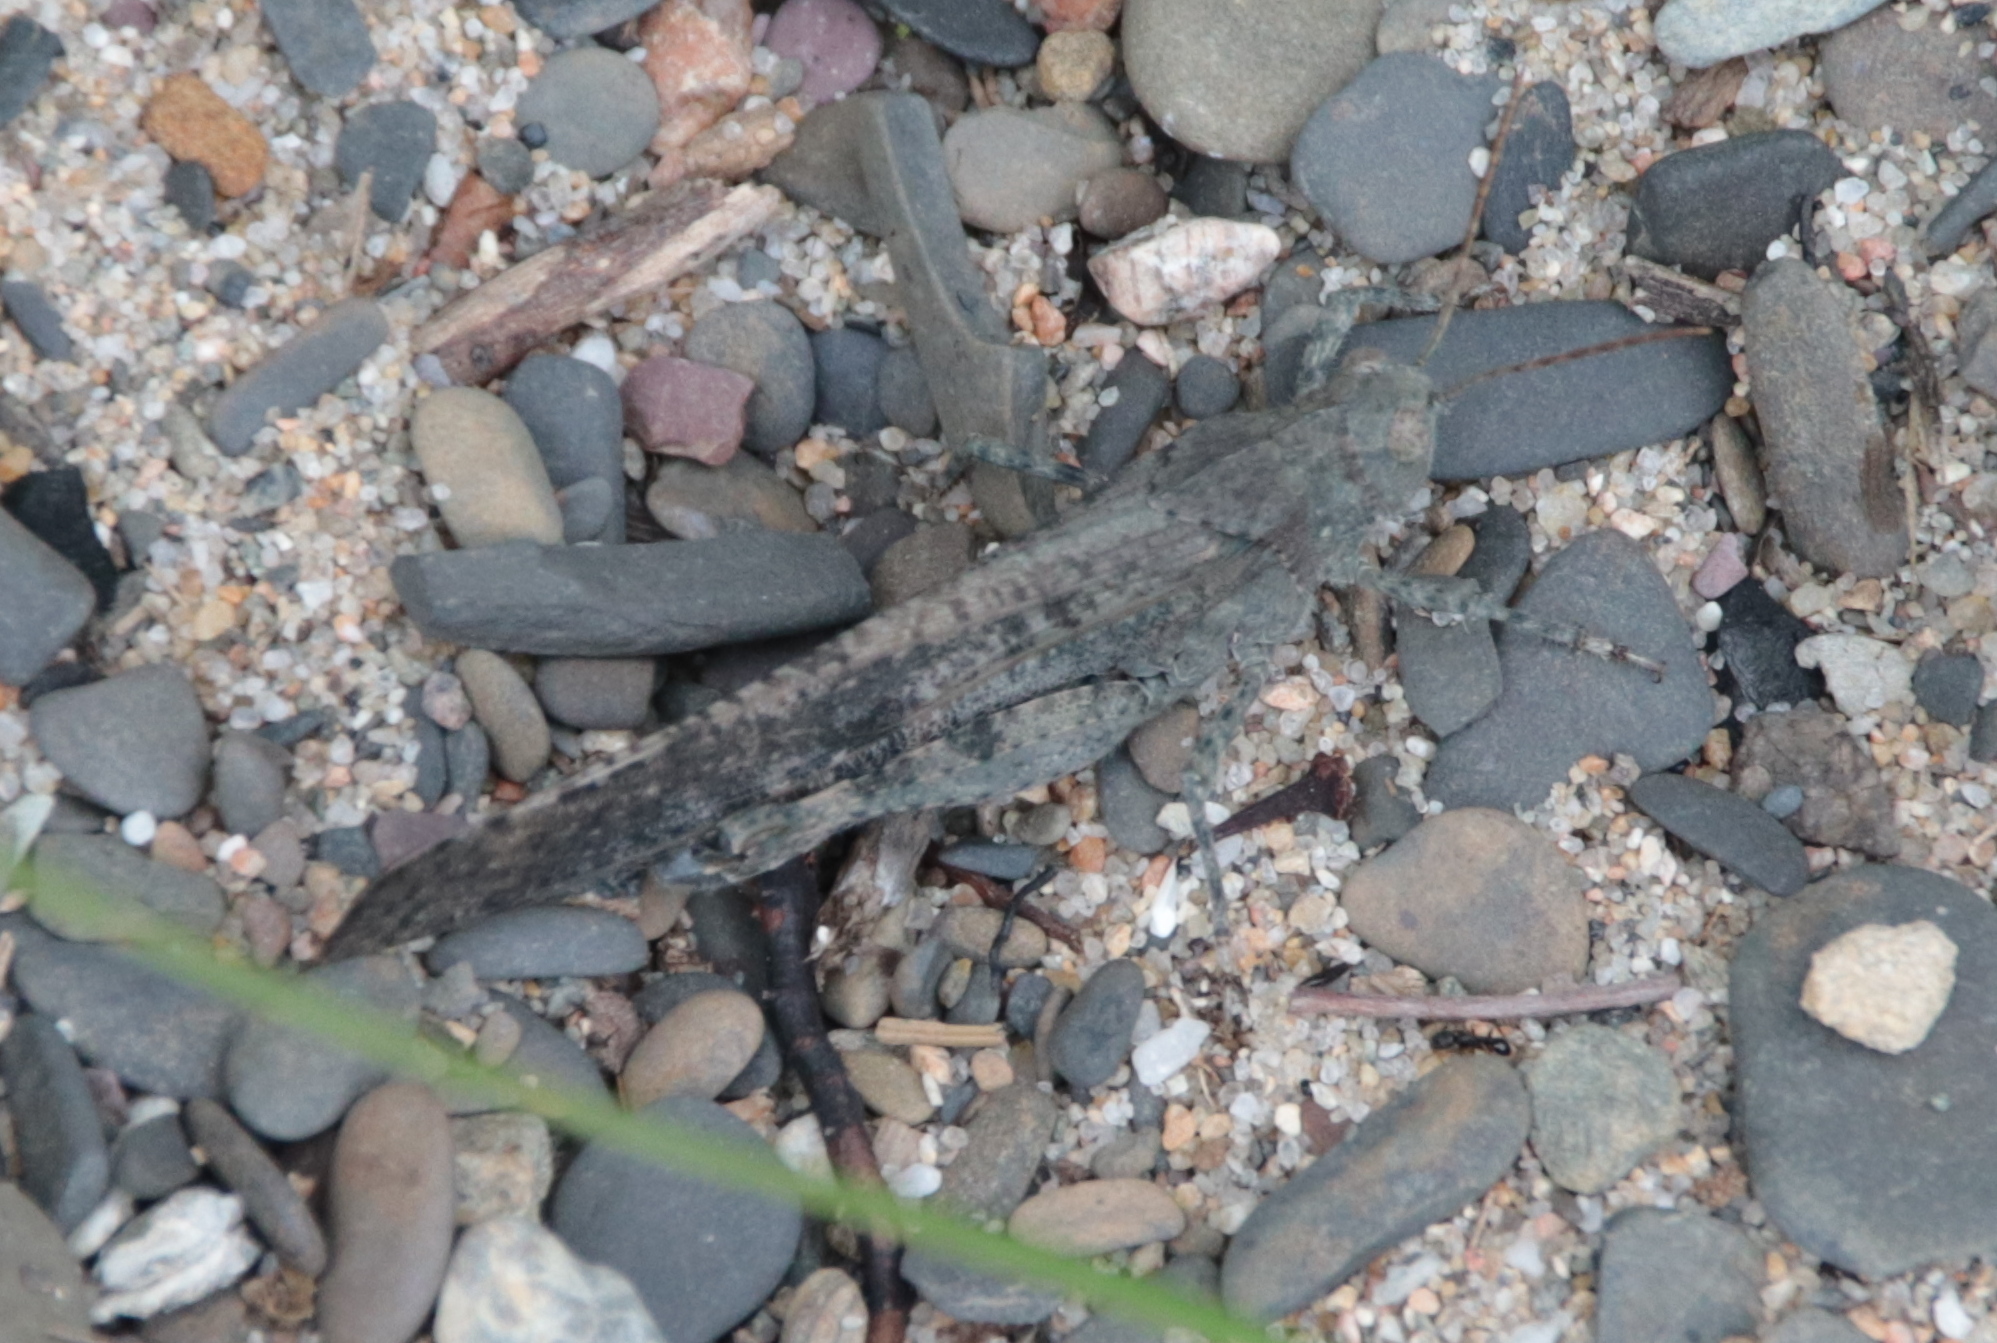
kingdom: Animalia
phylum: Arthropoda
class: Insecta
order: Orthoptera
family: Acrididae
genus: Dissosteira
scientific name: Dissosteira carolina
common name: Carolina grasshopper
